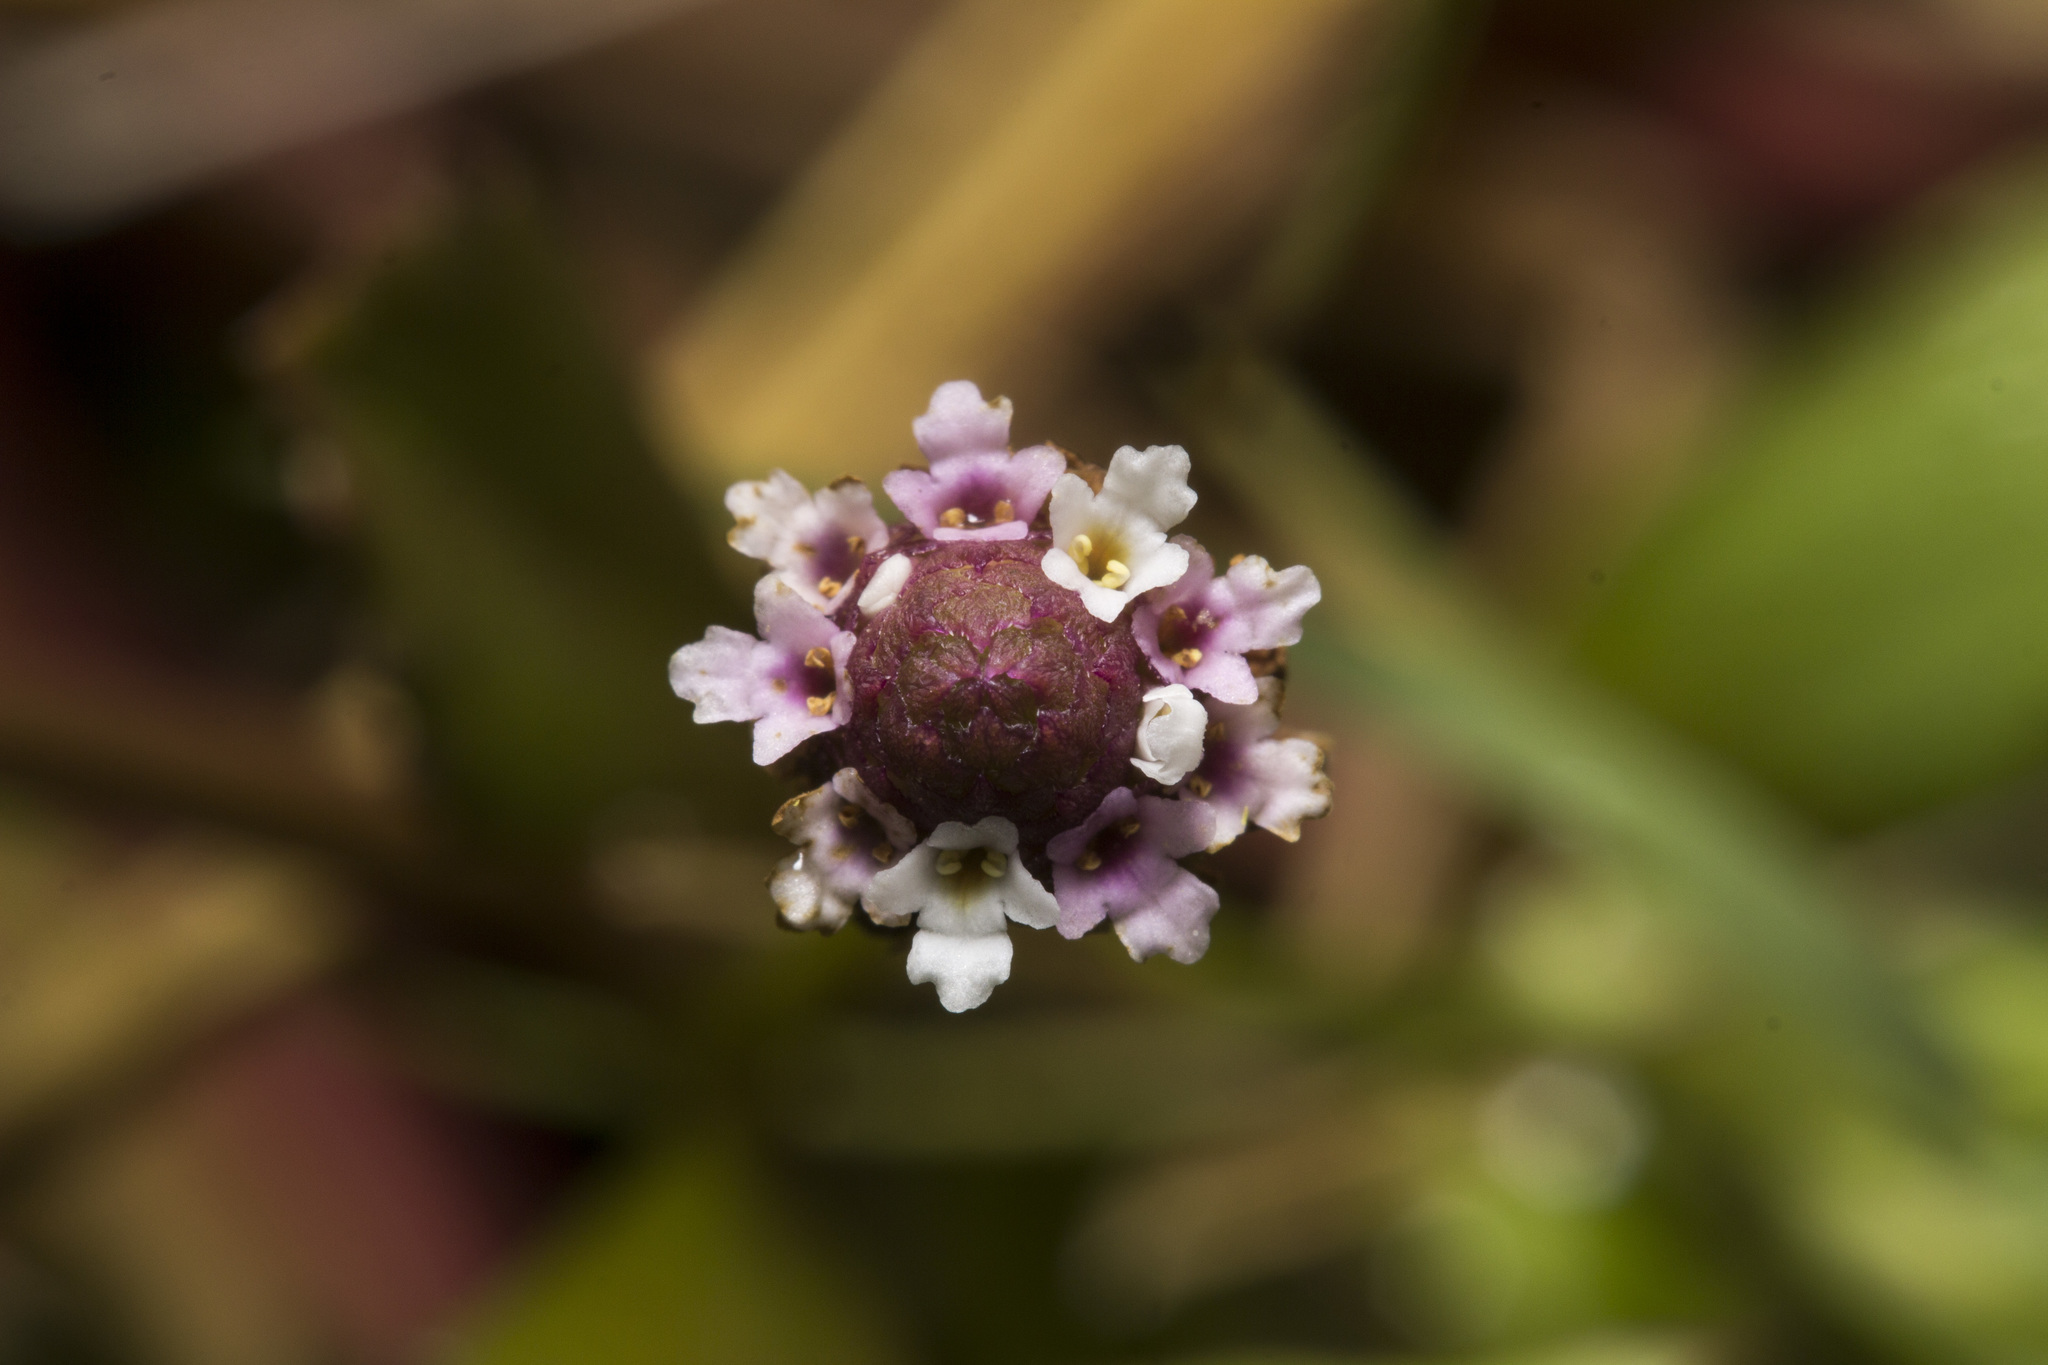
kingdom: Plantae
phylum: Tracheophyta
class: Magnoliopsida
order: Lamiales
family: Verbenaceae
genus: Phyla
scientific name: Phyla nodiflora
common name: Frogfruit
